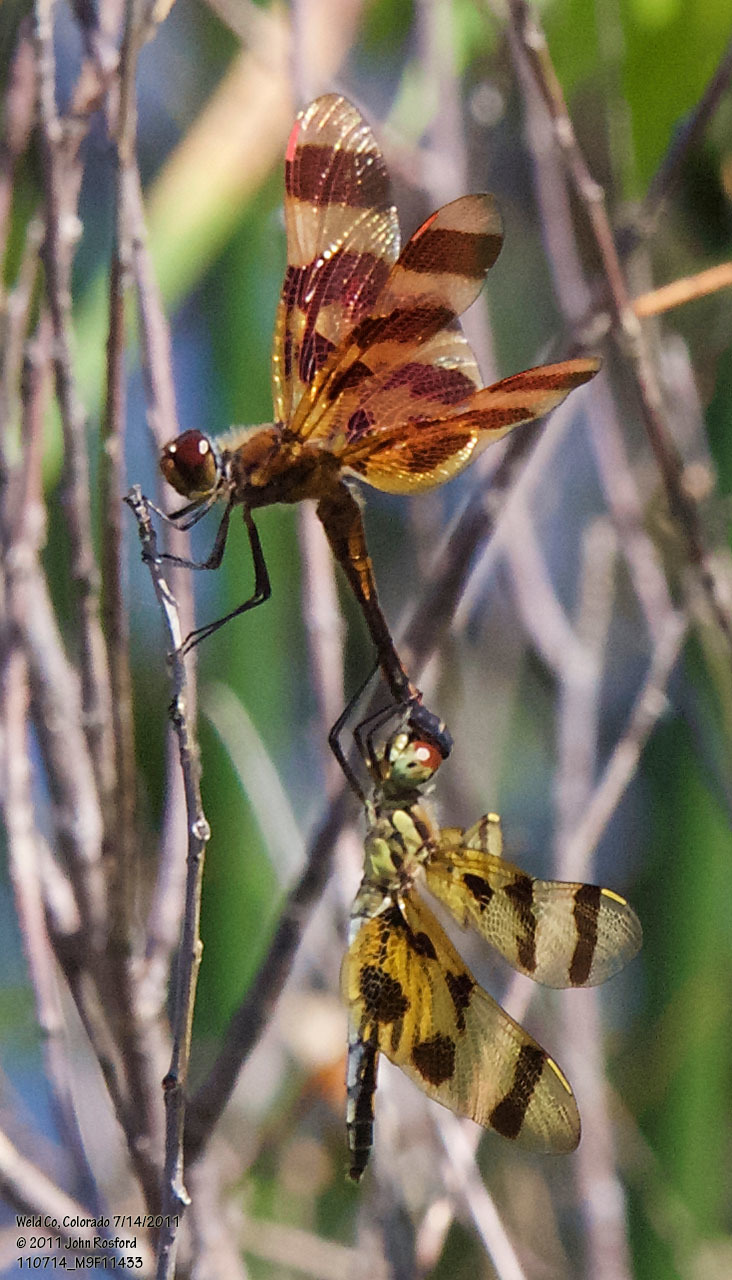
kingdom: Animalia
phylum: Arthropoda
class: Insecta
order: Odonata
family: Libellulidae
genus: Celithemis
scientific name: Celithemis eponina
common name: Halloween pennant
